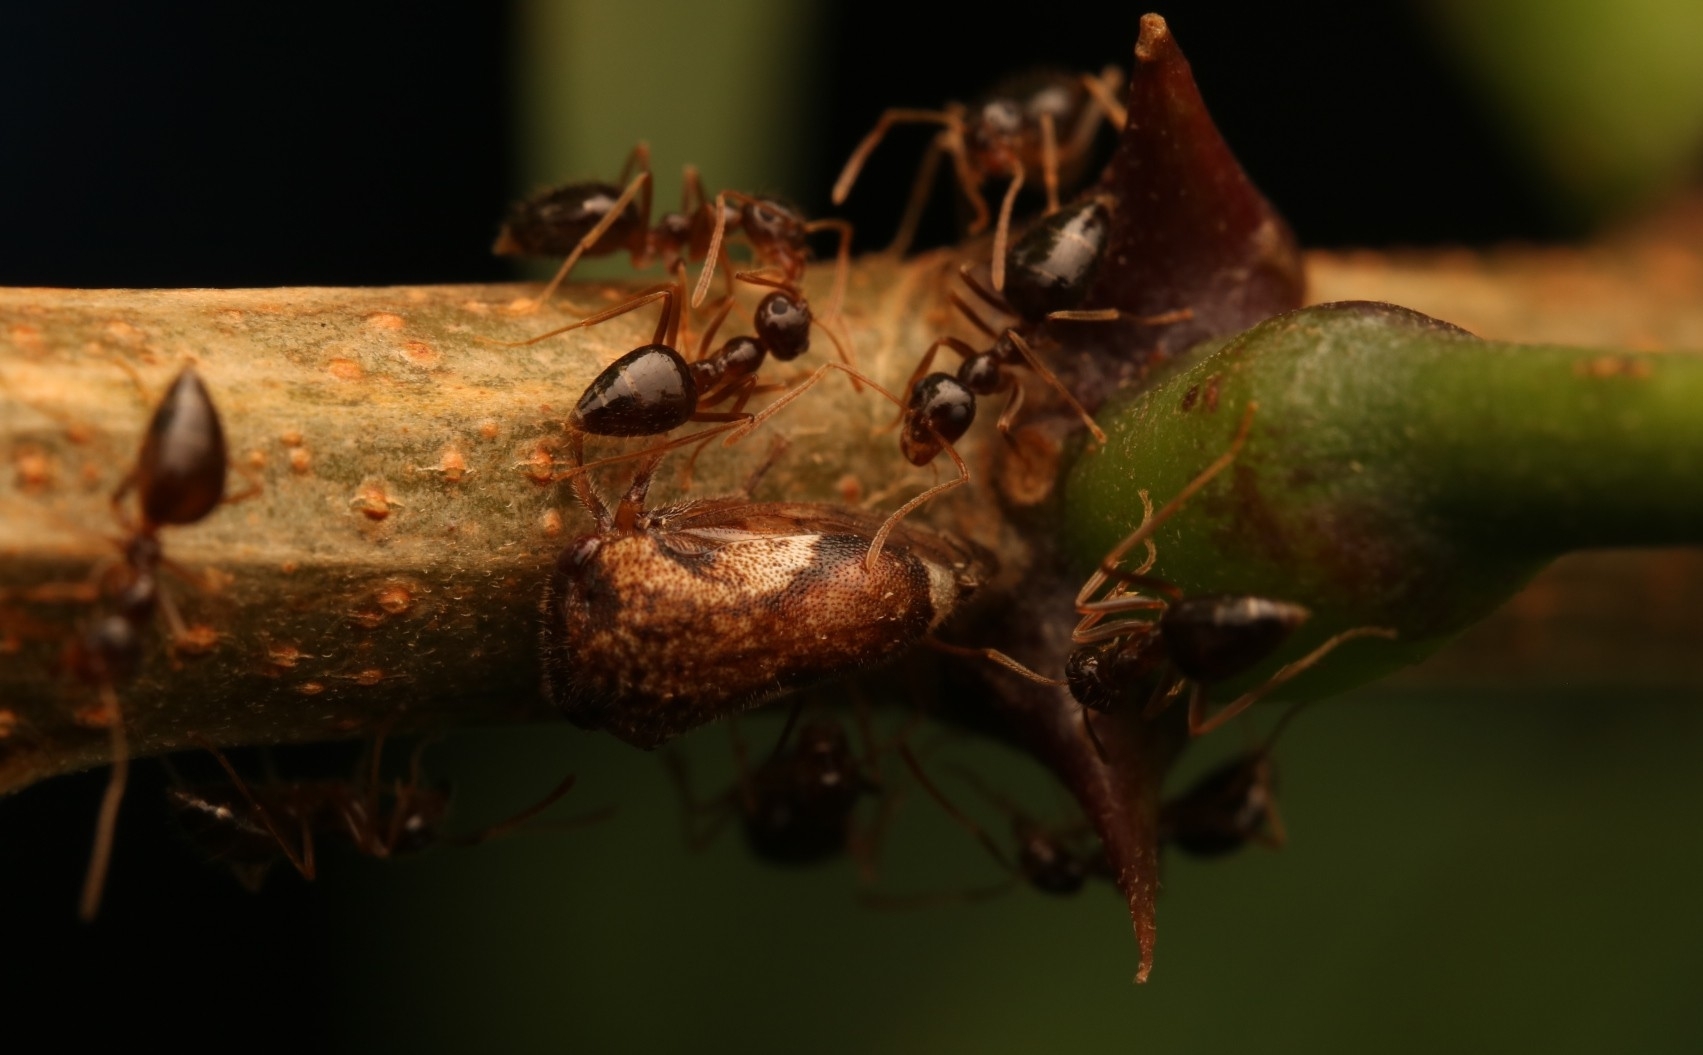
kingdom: Animalia
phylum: Arthropoda
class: Insecta
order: Hymenoptera
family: Formicidae
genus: Prenolepis
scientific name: Prenolepis imparis
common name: Small honey ant
